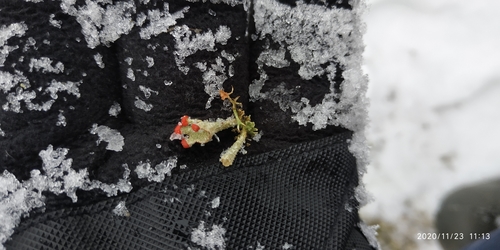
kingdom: Fungi
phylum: Ascomycota
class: Lecanoromycetes
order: Lecanorales
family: Cladoniaceae
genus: Cladonia
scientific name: Cladonia
